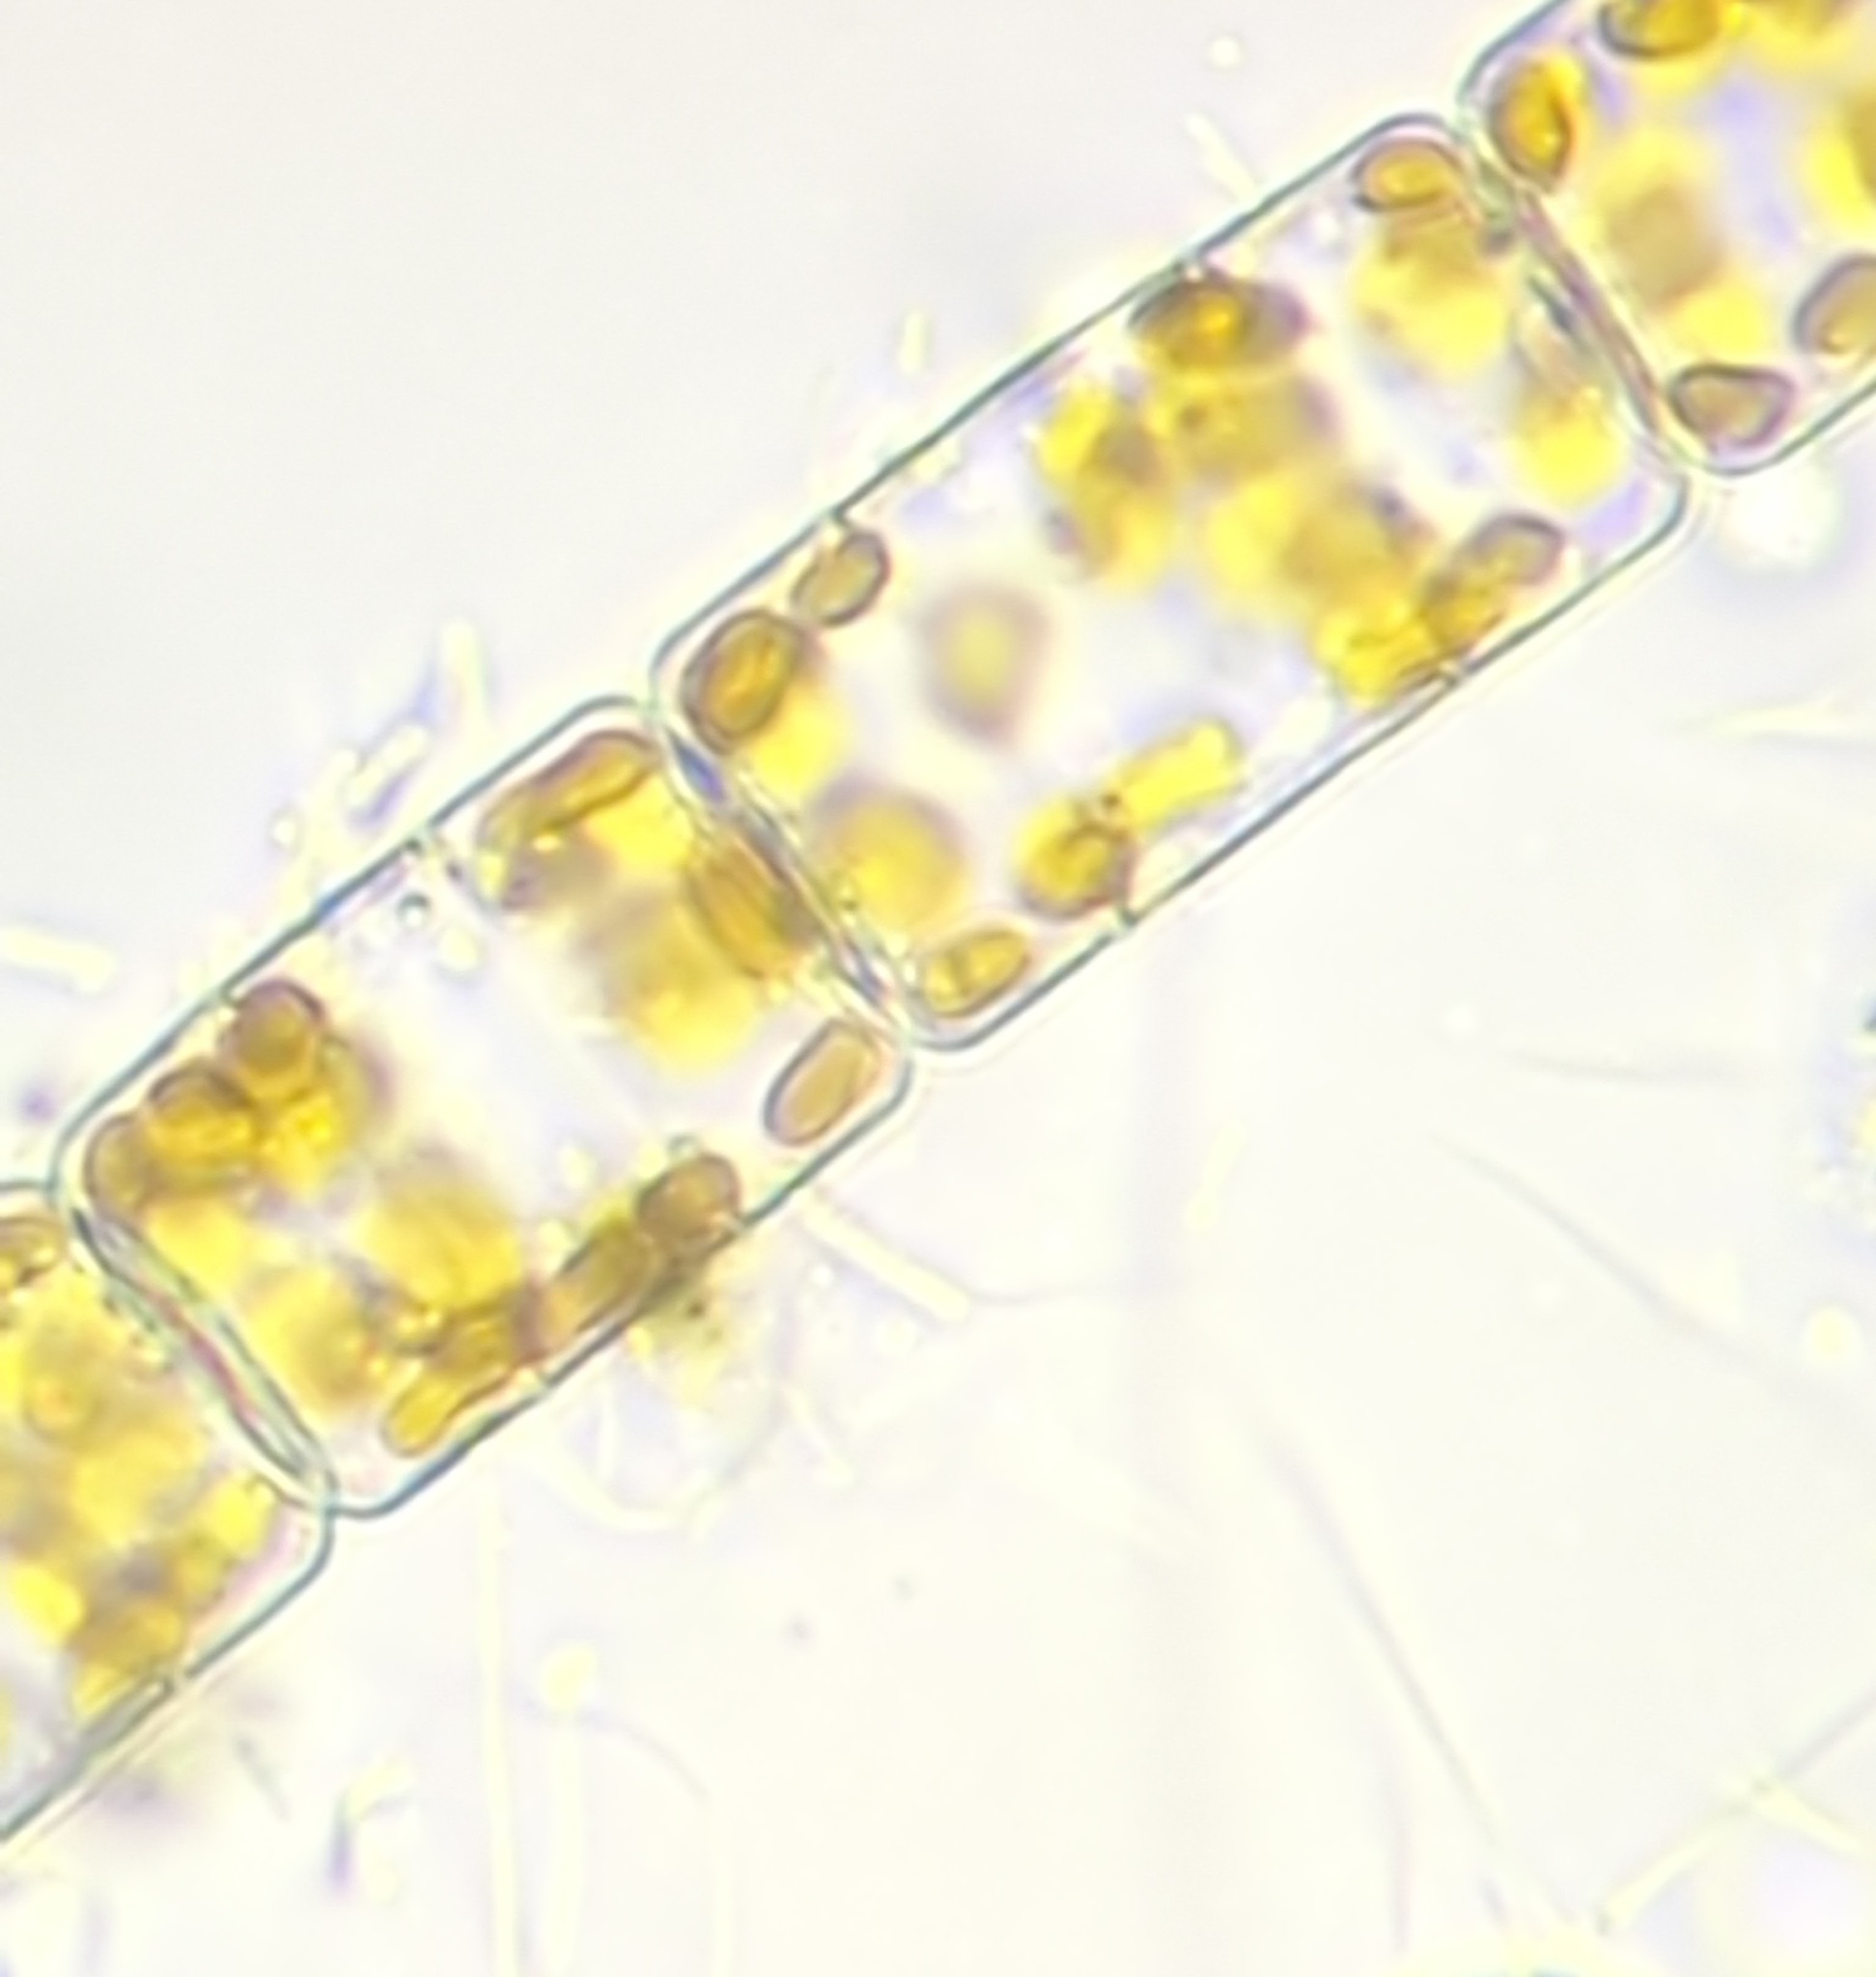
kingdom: Chromista
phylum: Ochrophyta
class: Bacillariophyceae
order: Melosirales
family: Melosiraceae
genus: Melosira
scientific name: Melosira varians
